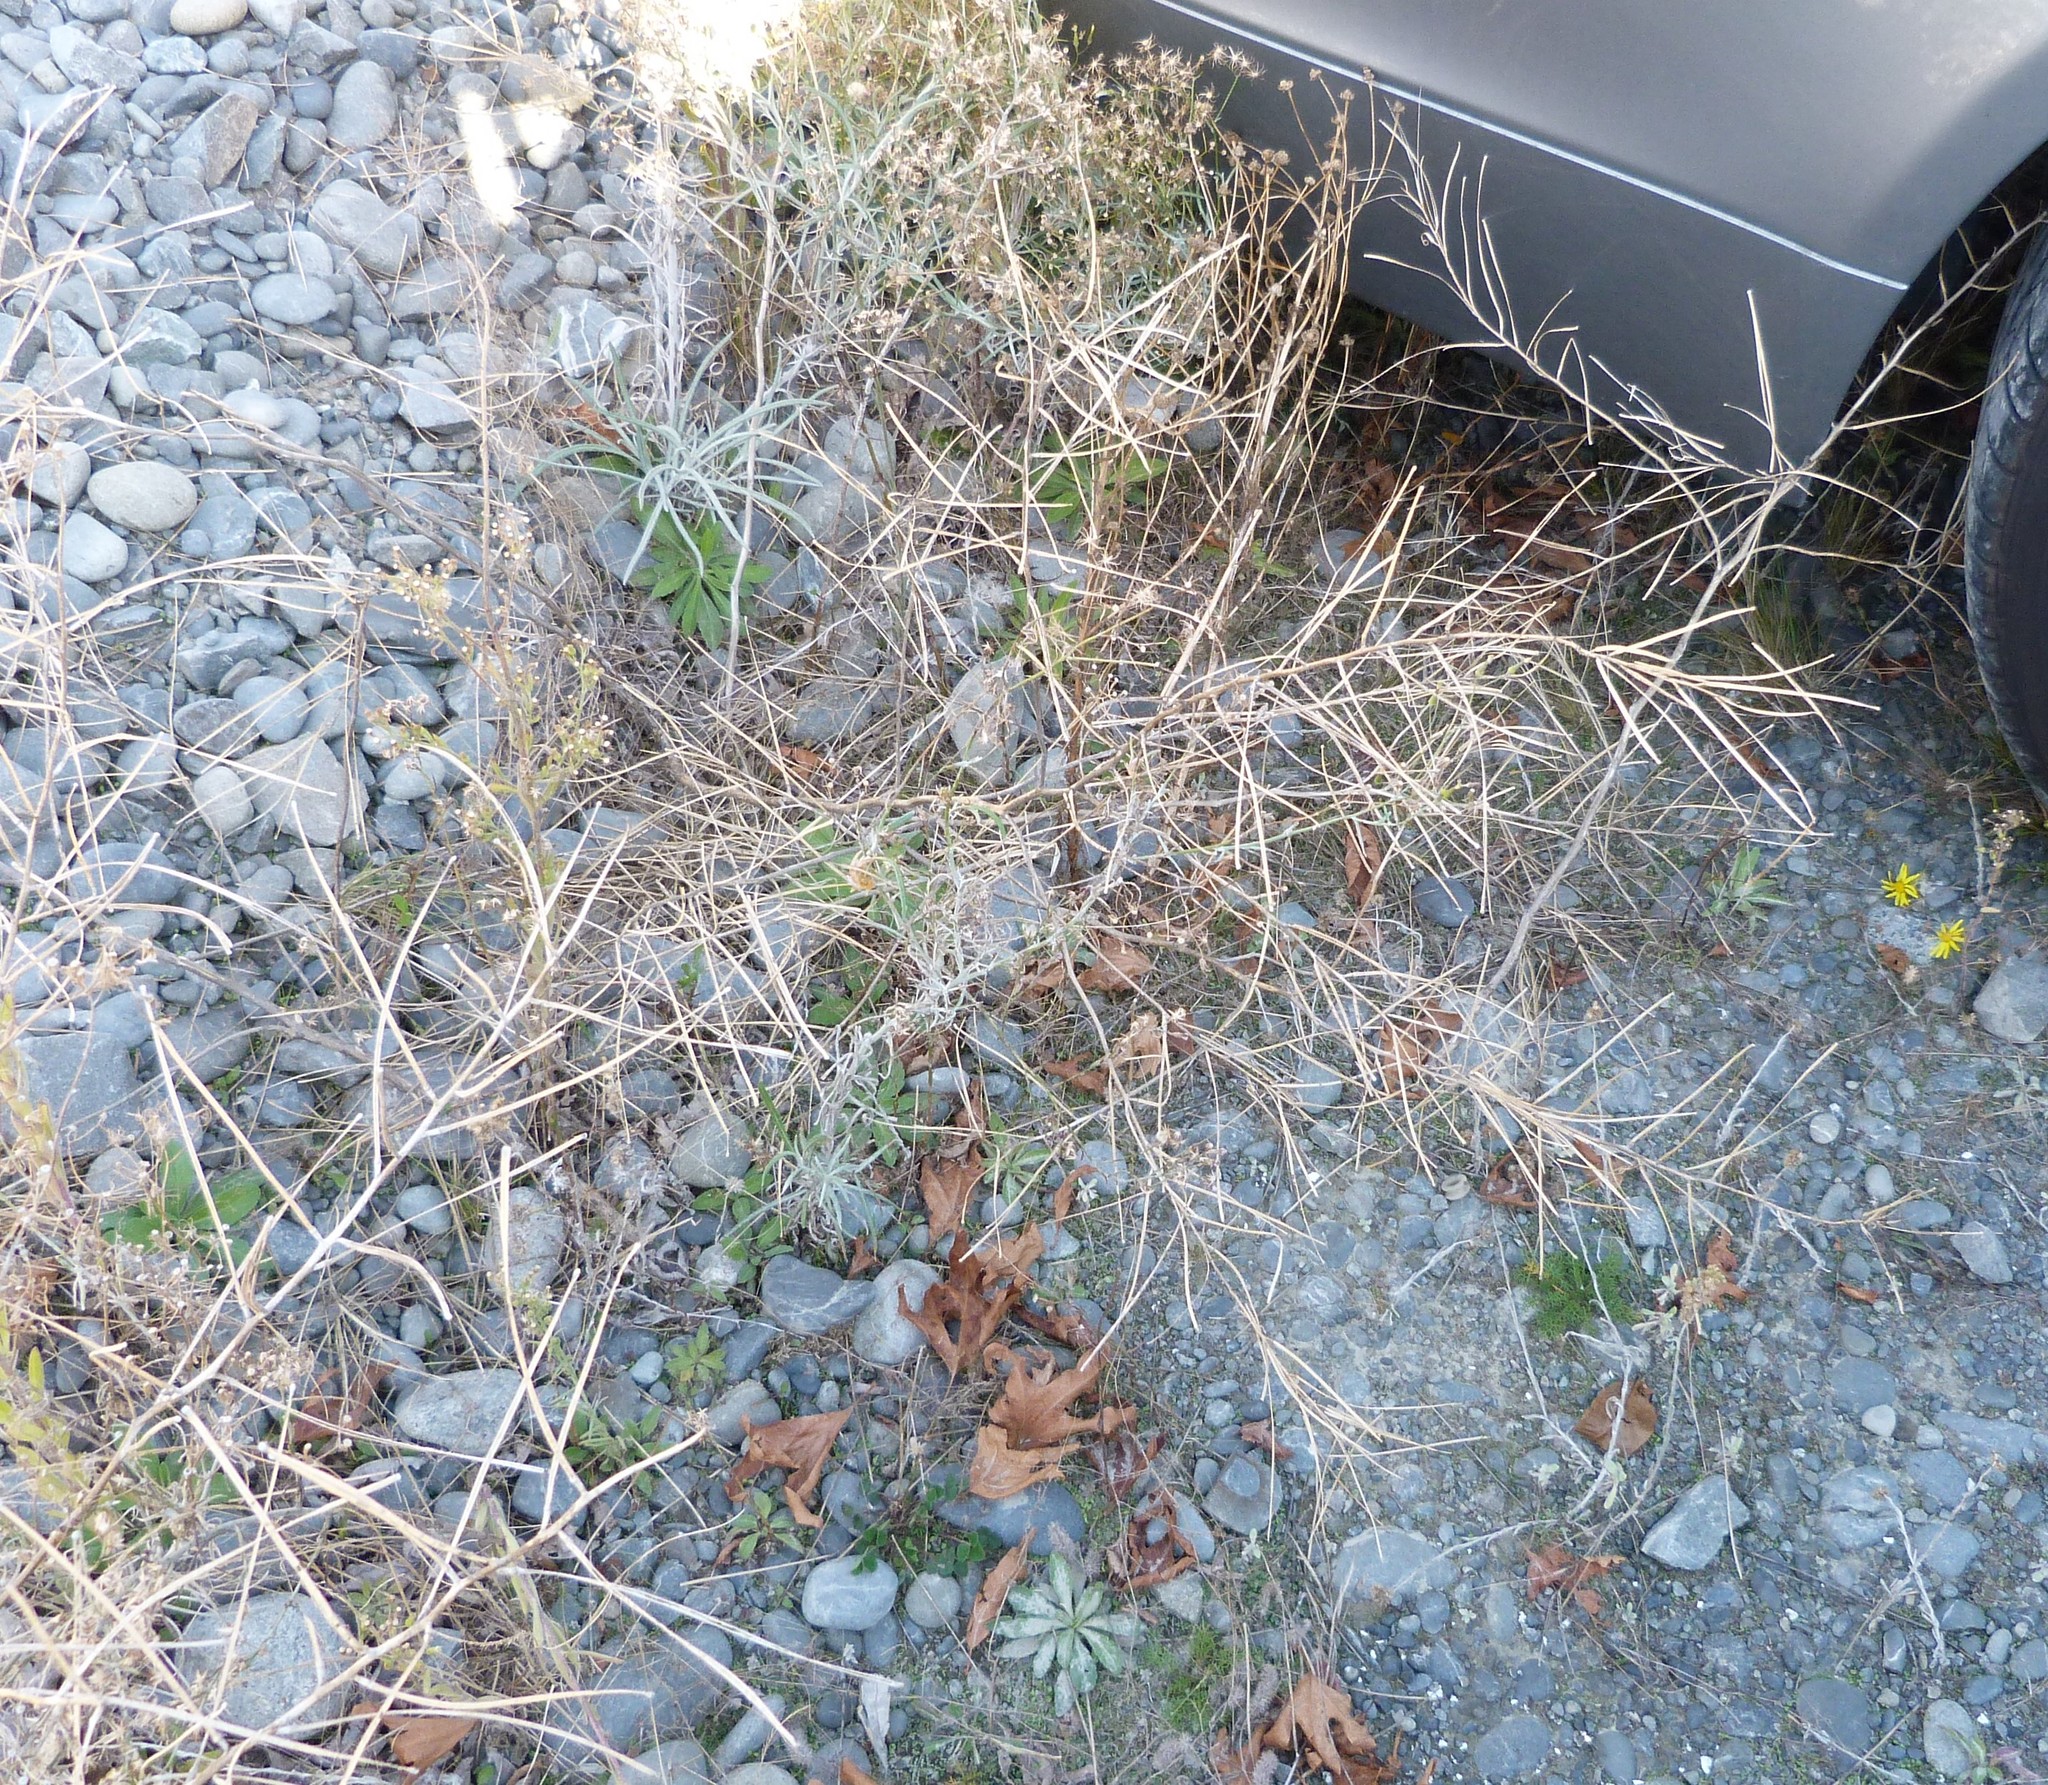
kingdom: Plantae
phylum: Tracheophyta
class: Magnoliopsida
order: Brassicales
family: Brassicaceae
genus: Sisymbrium
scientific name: Sisymbrium orientale
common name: Eastern rocket
